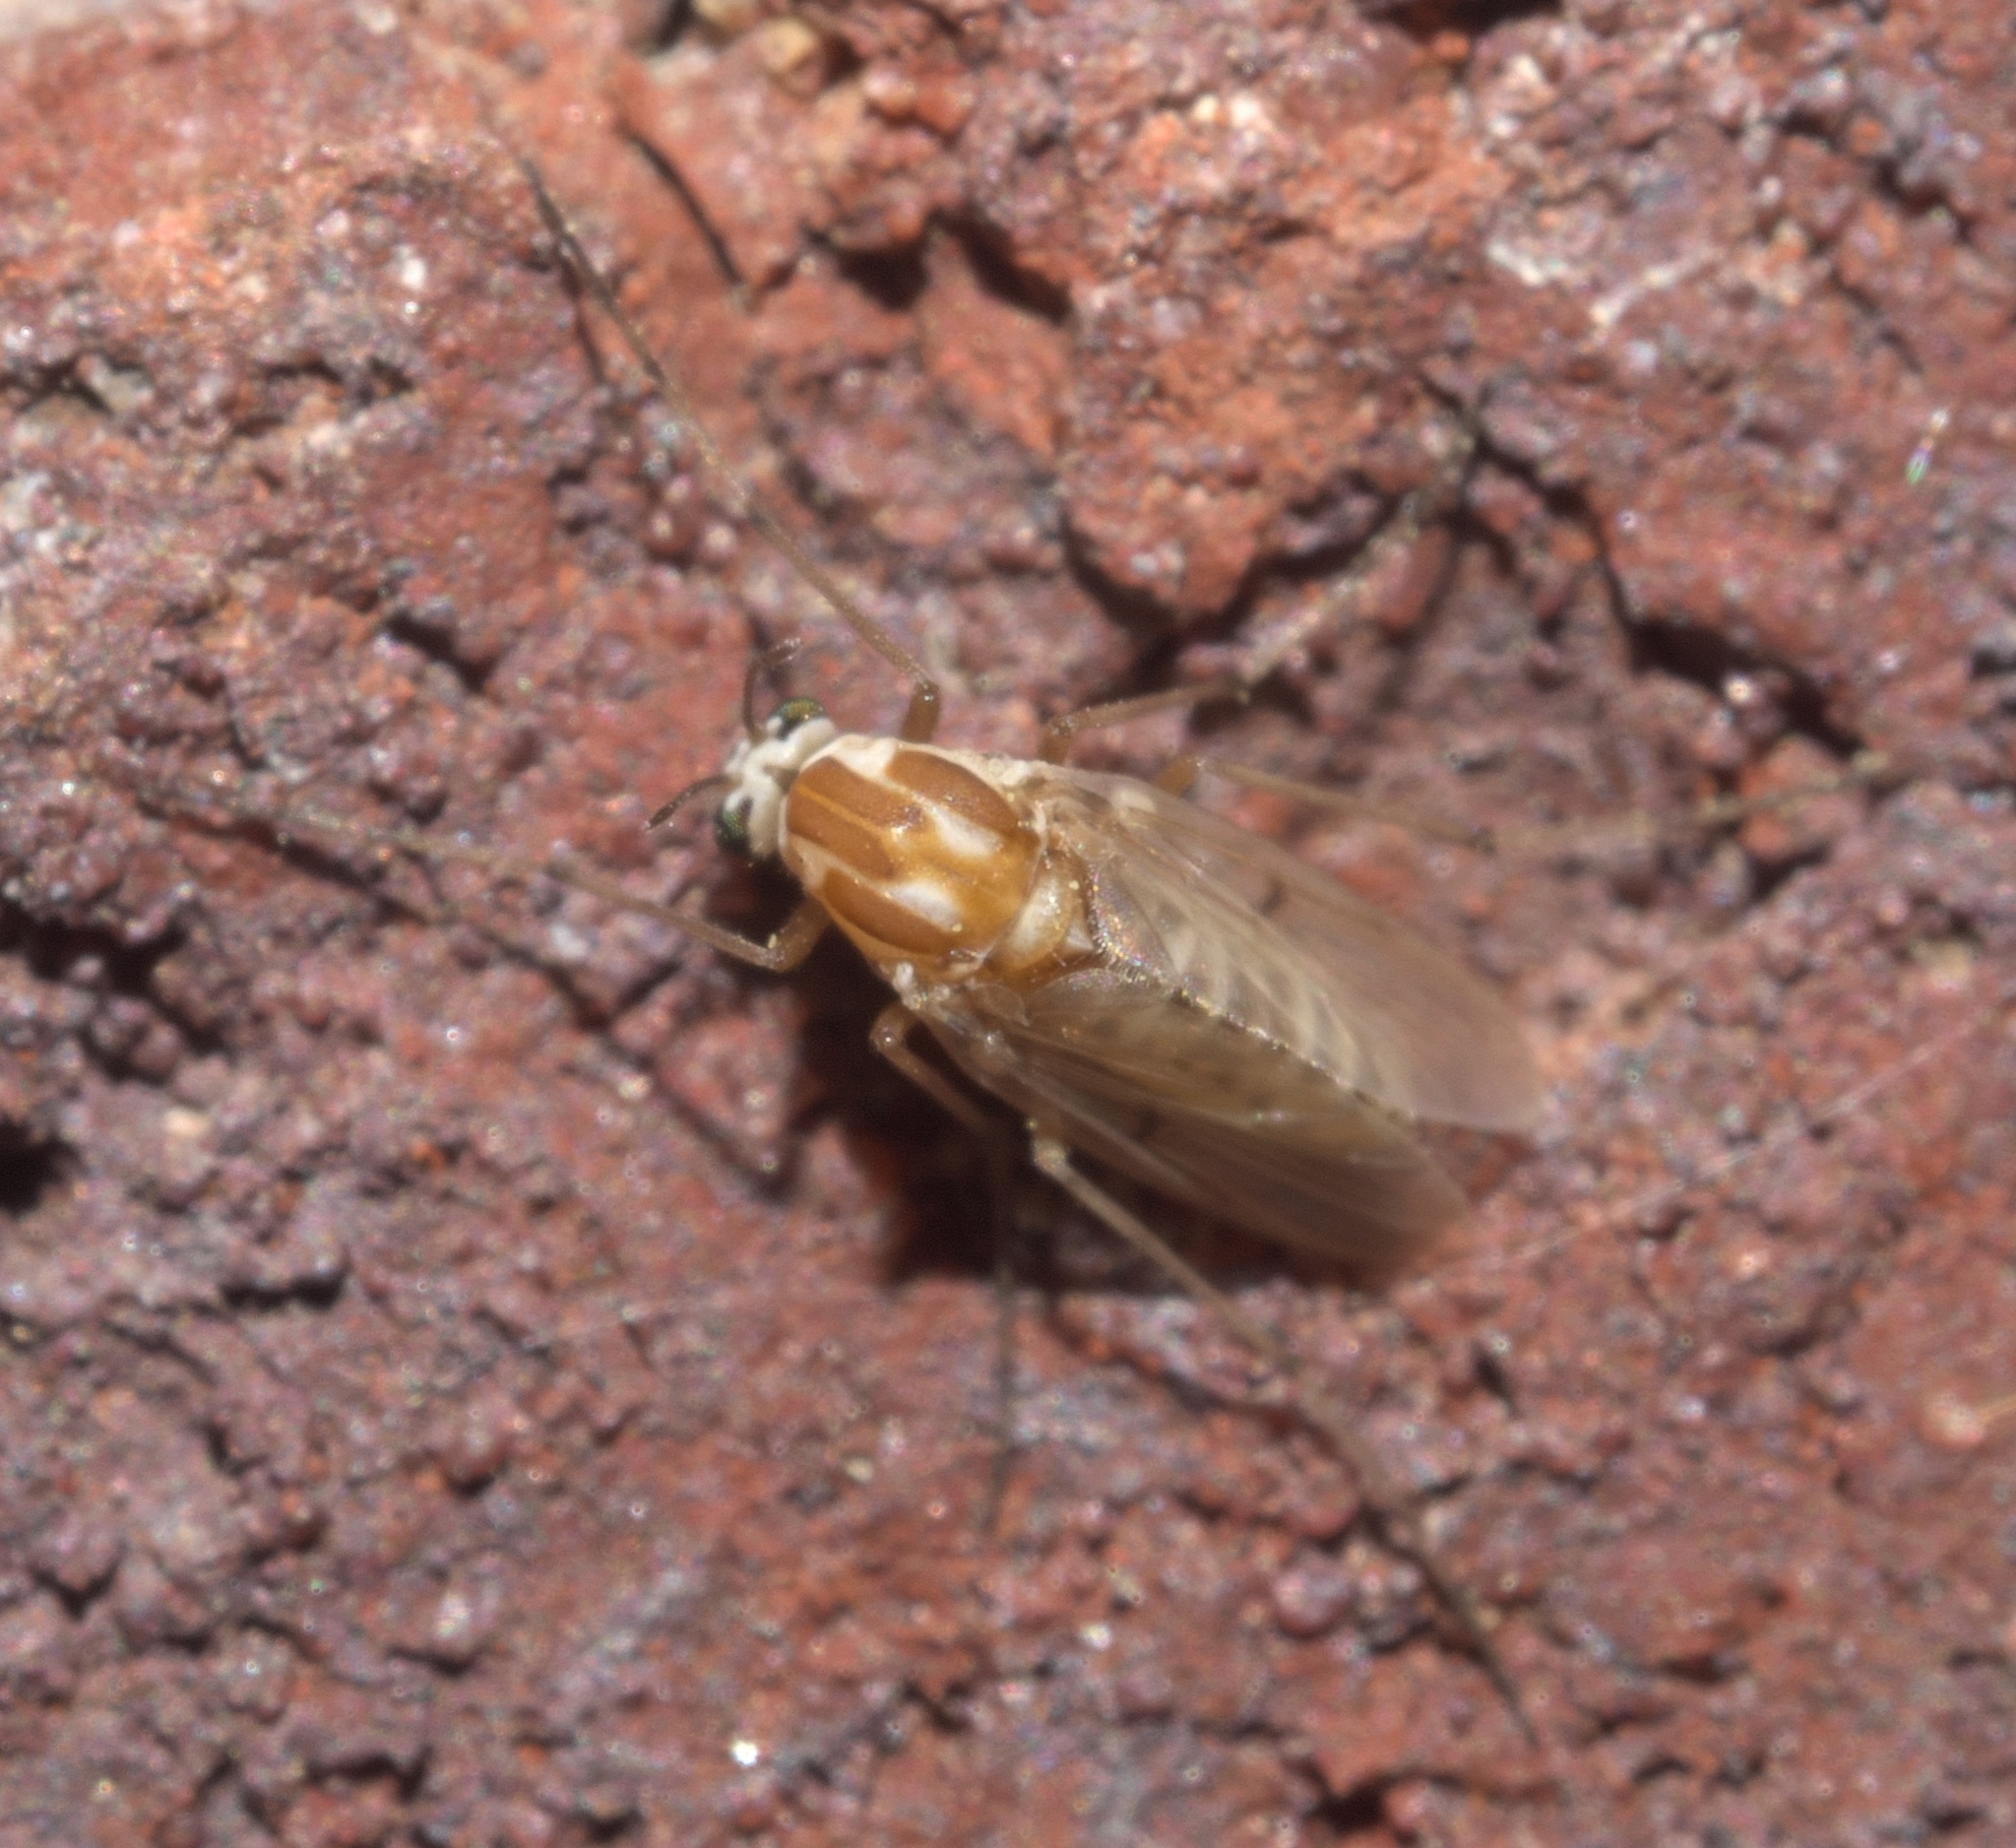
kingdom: Animalia
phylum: Arthropoda
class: Insecta
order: Diptera
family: Chironomidae
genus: Procladius
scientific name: Procladius bellus
